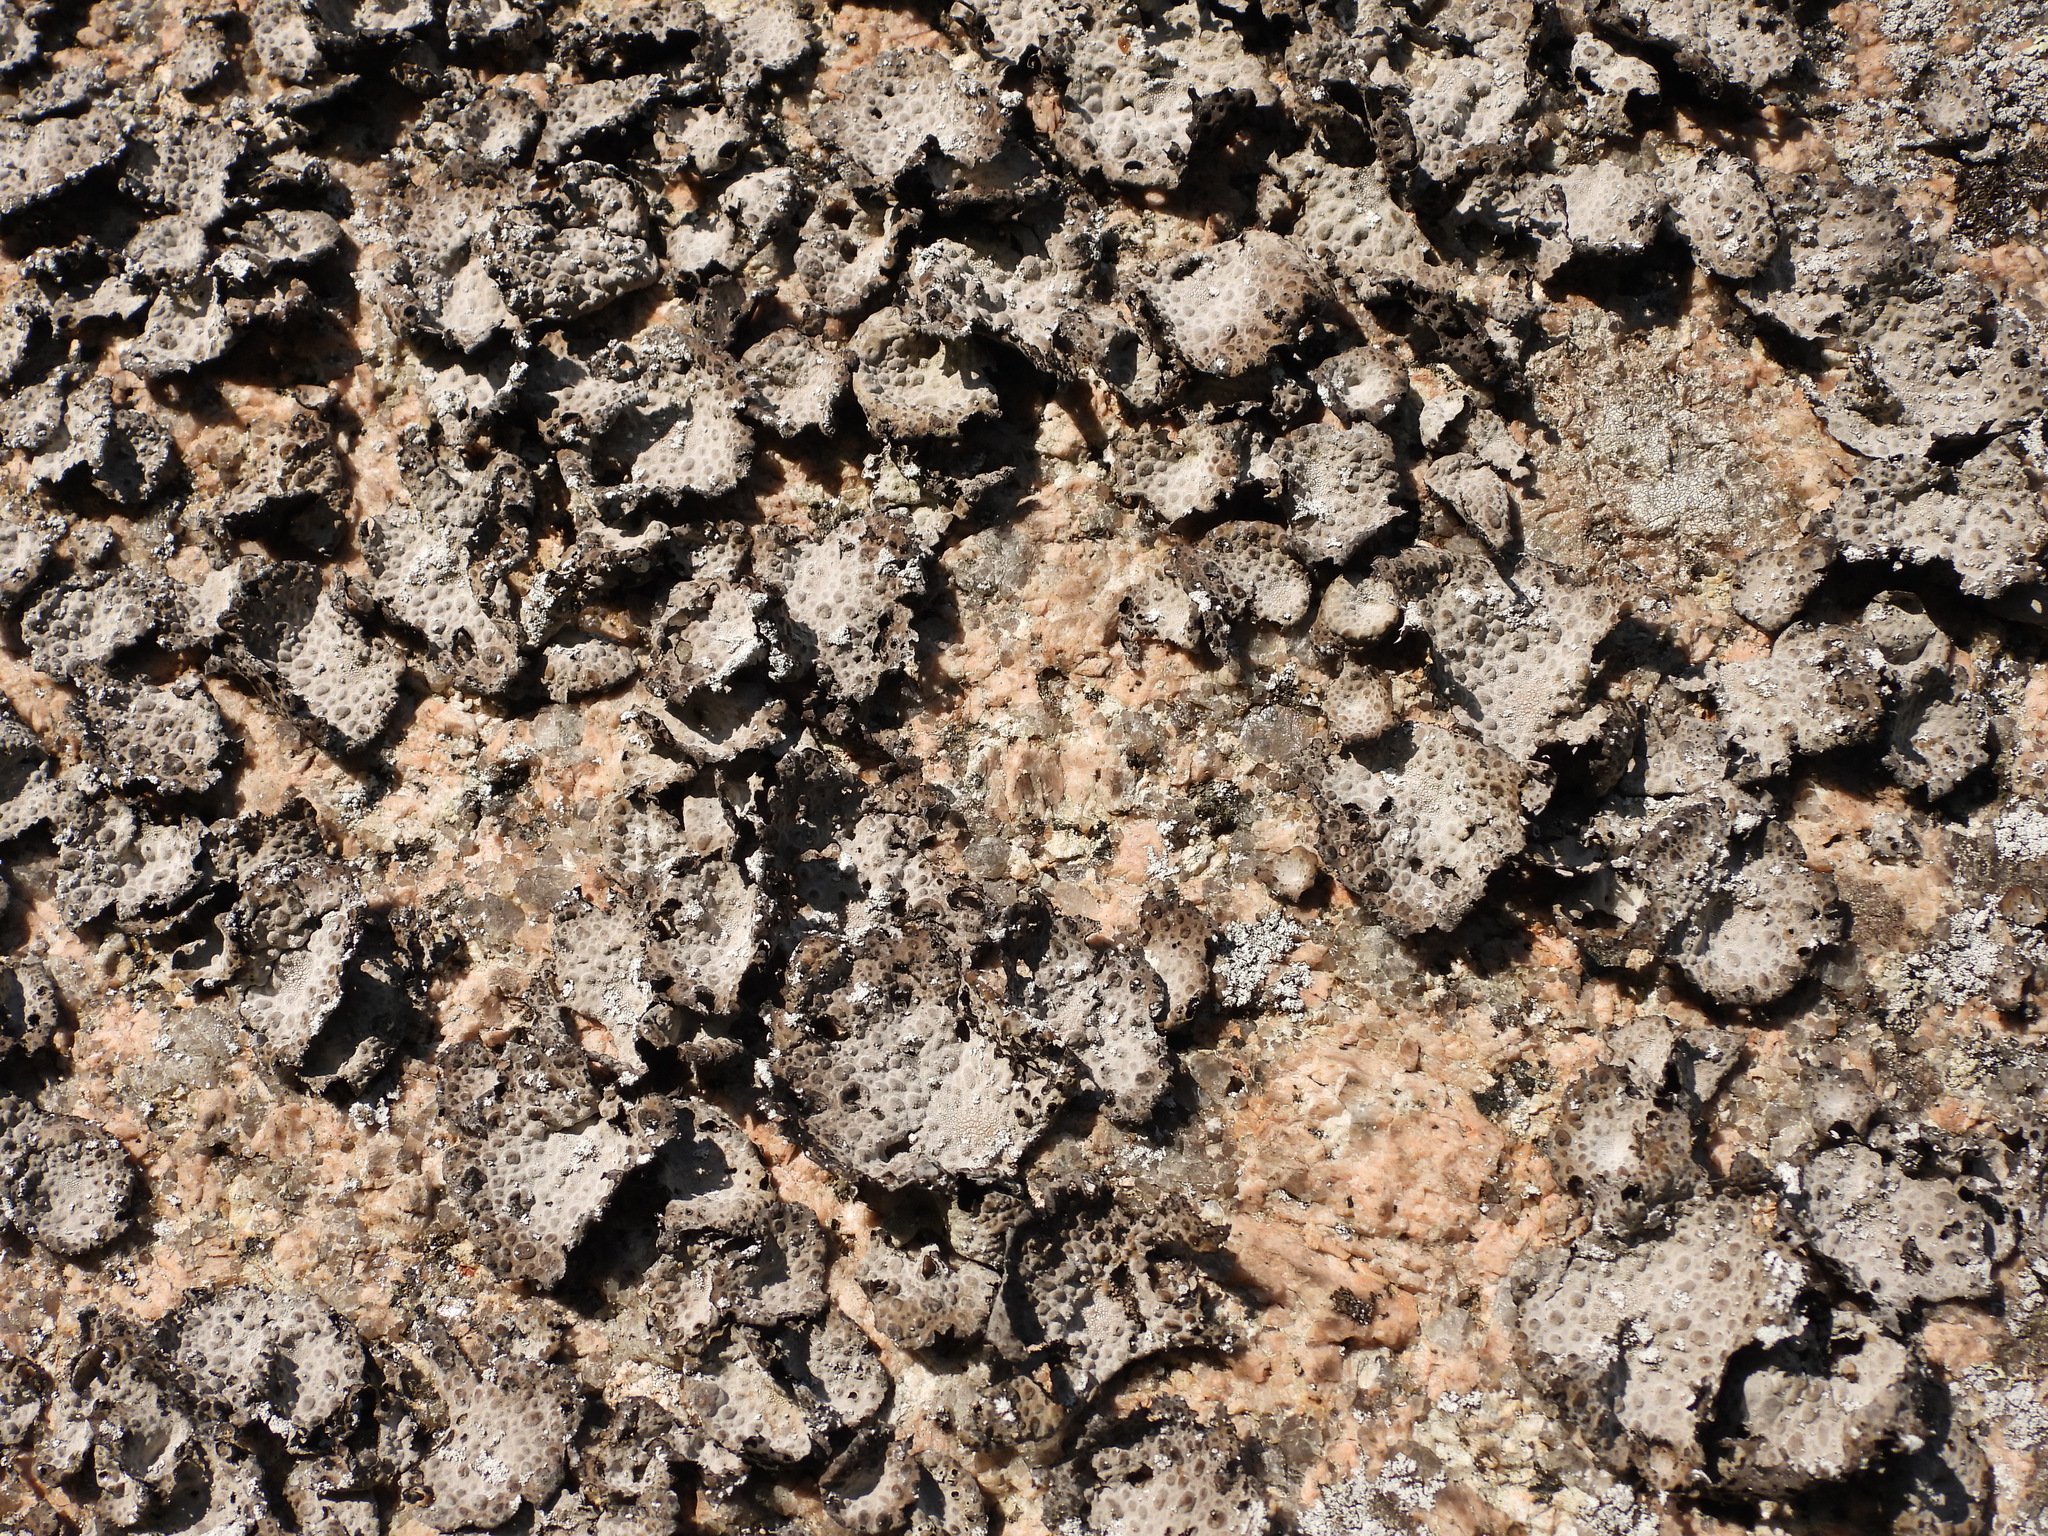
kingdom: Fungi
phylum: Ascomycota
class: Lecanoromycetes
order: Umbilicariales
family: Umbilicariaceae
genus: Lasallia
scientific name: Lasallia pustulata
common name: Blistered toadskin lichen
